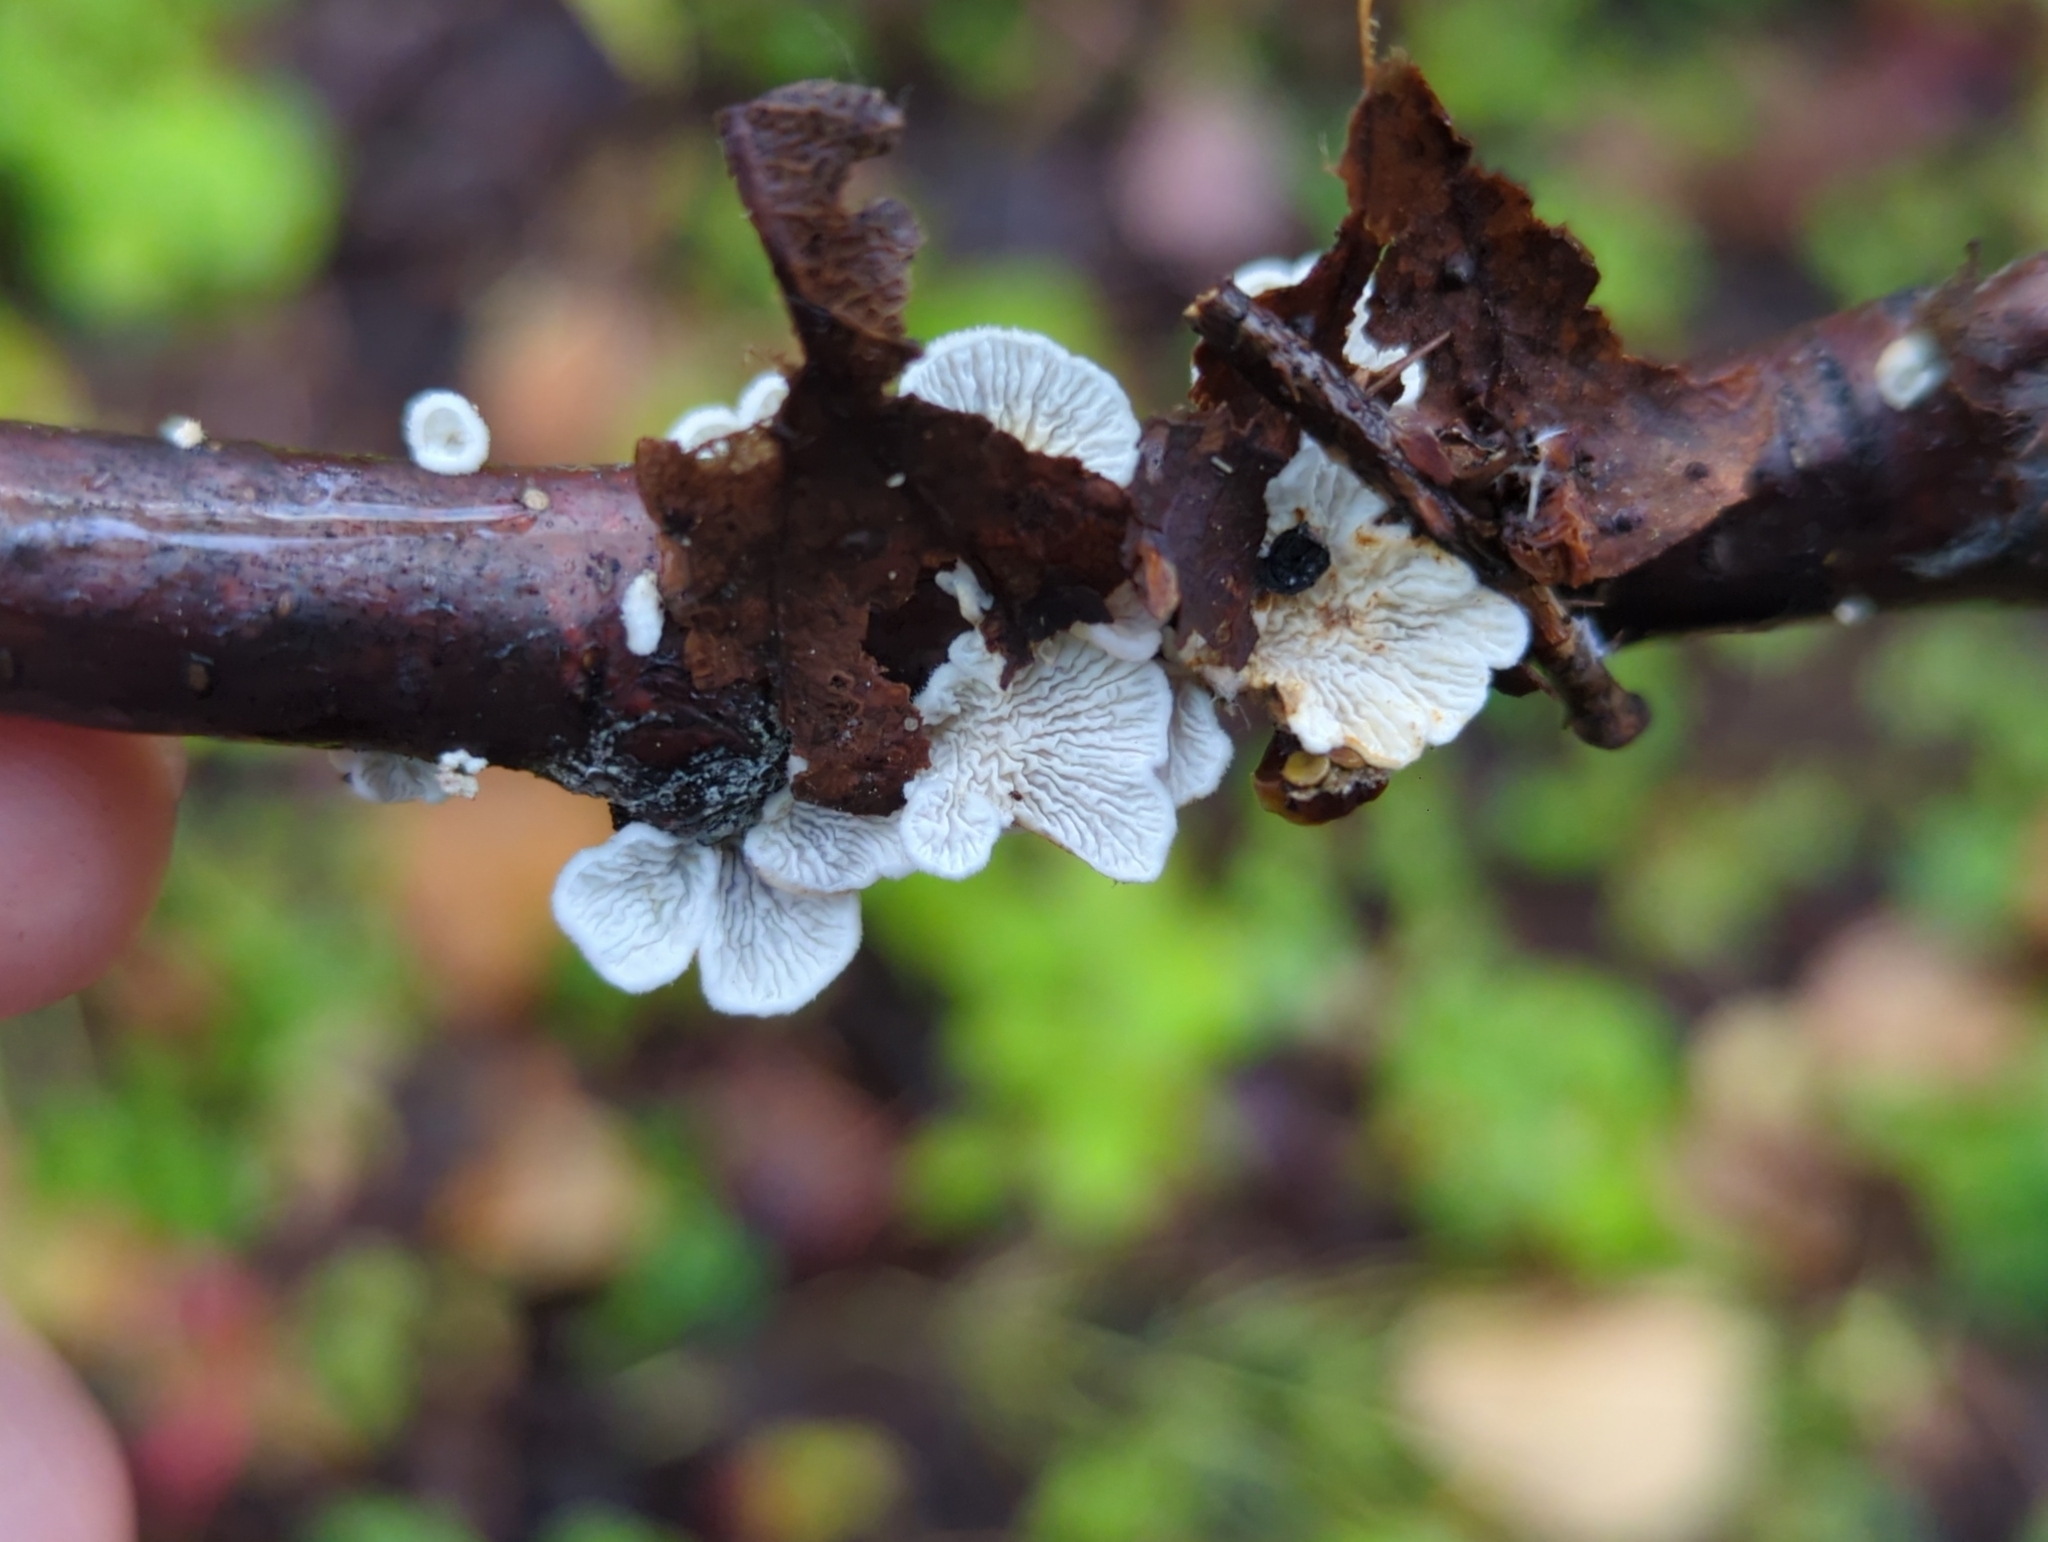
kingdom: Fungi
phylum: Basidiomycota
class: Agaricomycetes
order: Amylocorticiales
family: Amylocorticiaceae
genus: Plicaturopsis
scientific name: Plicaturopsis crispa
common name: Crimped gill
